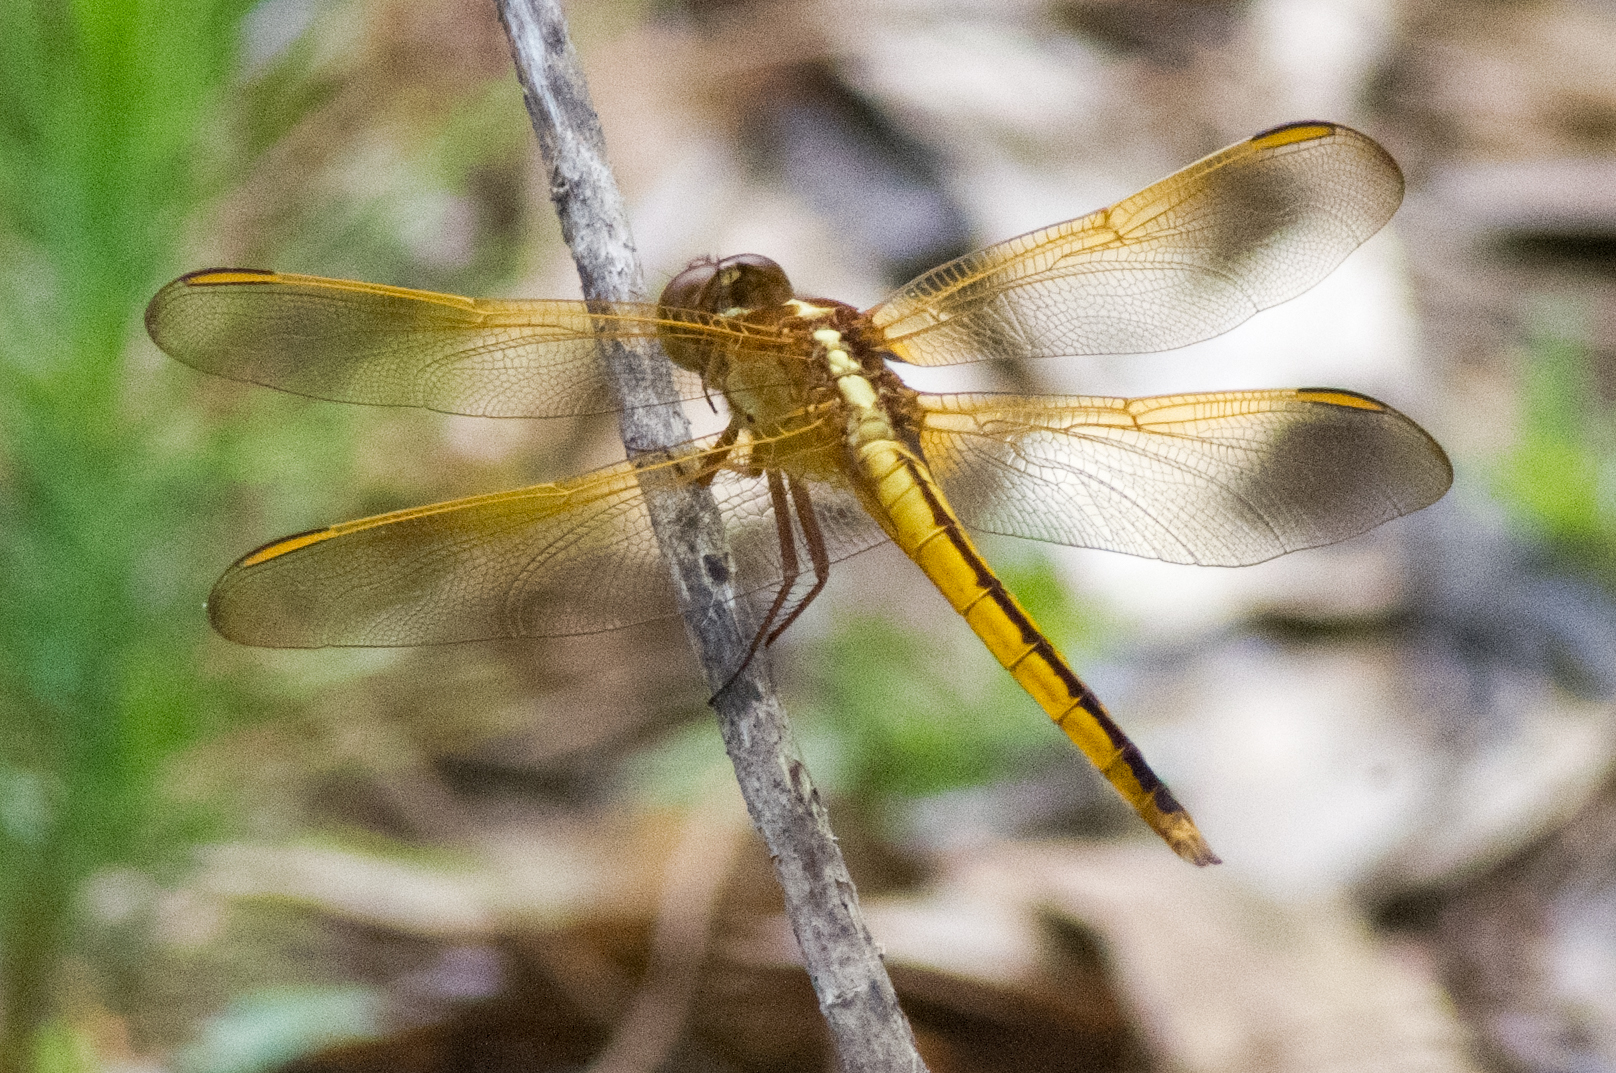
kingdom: Animalia
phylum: Arthropoda
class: Insecta
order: Odonata
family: Libellulidae
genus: Libellula
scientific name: Libellula needhami
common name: Needham's skimmer
